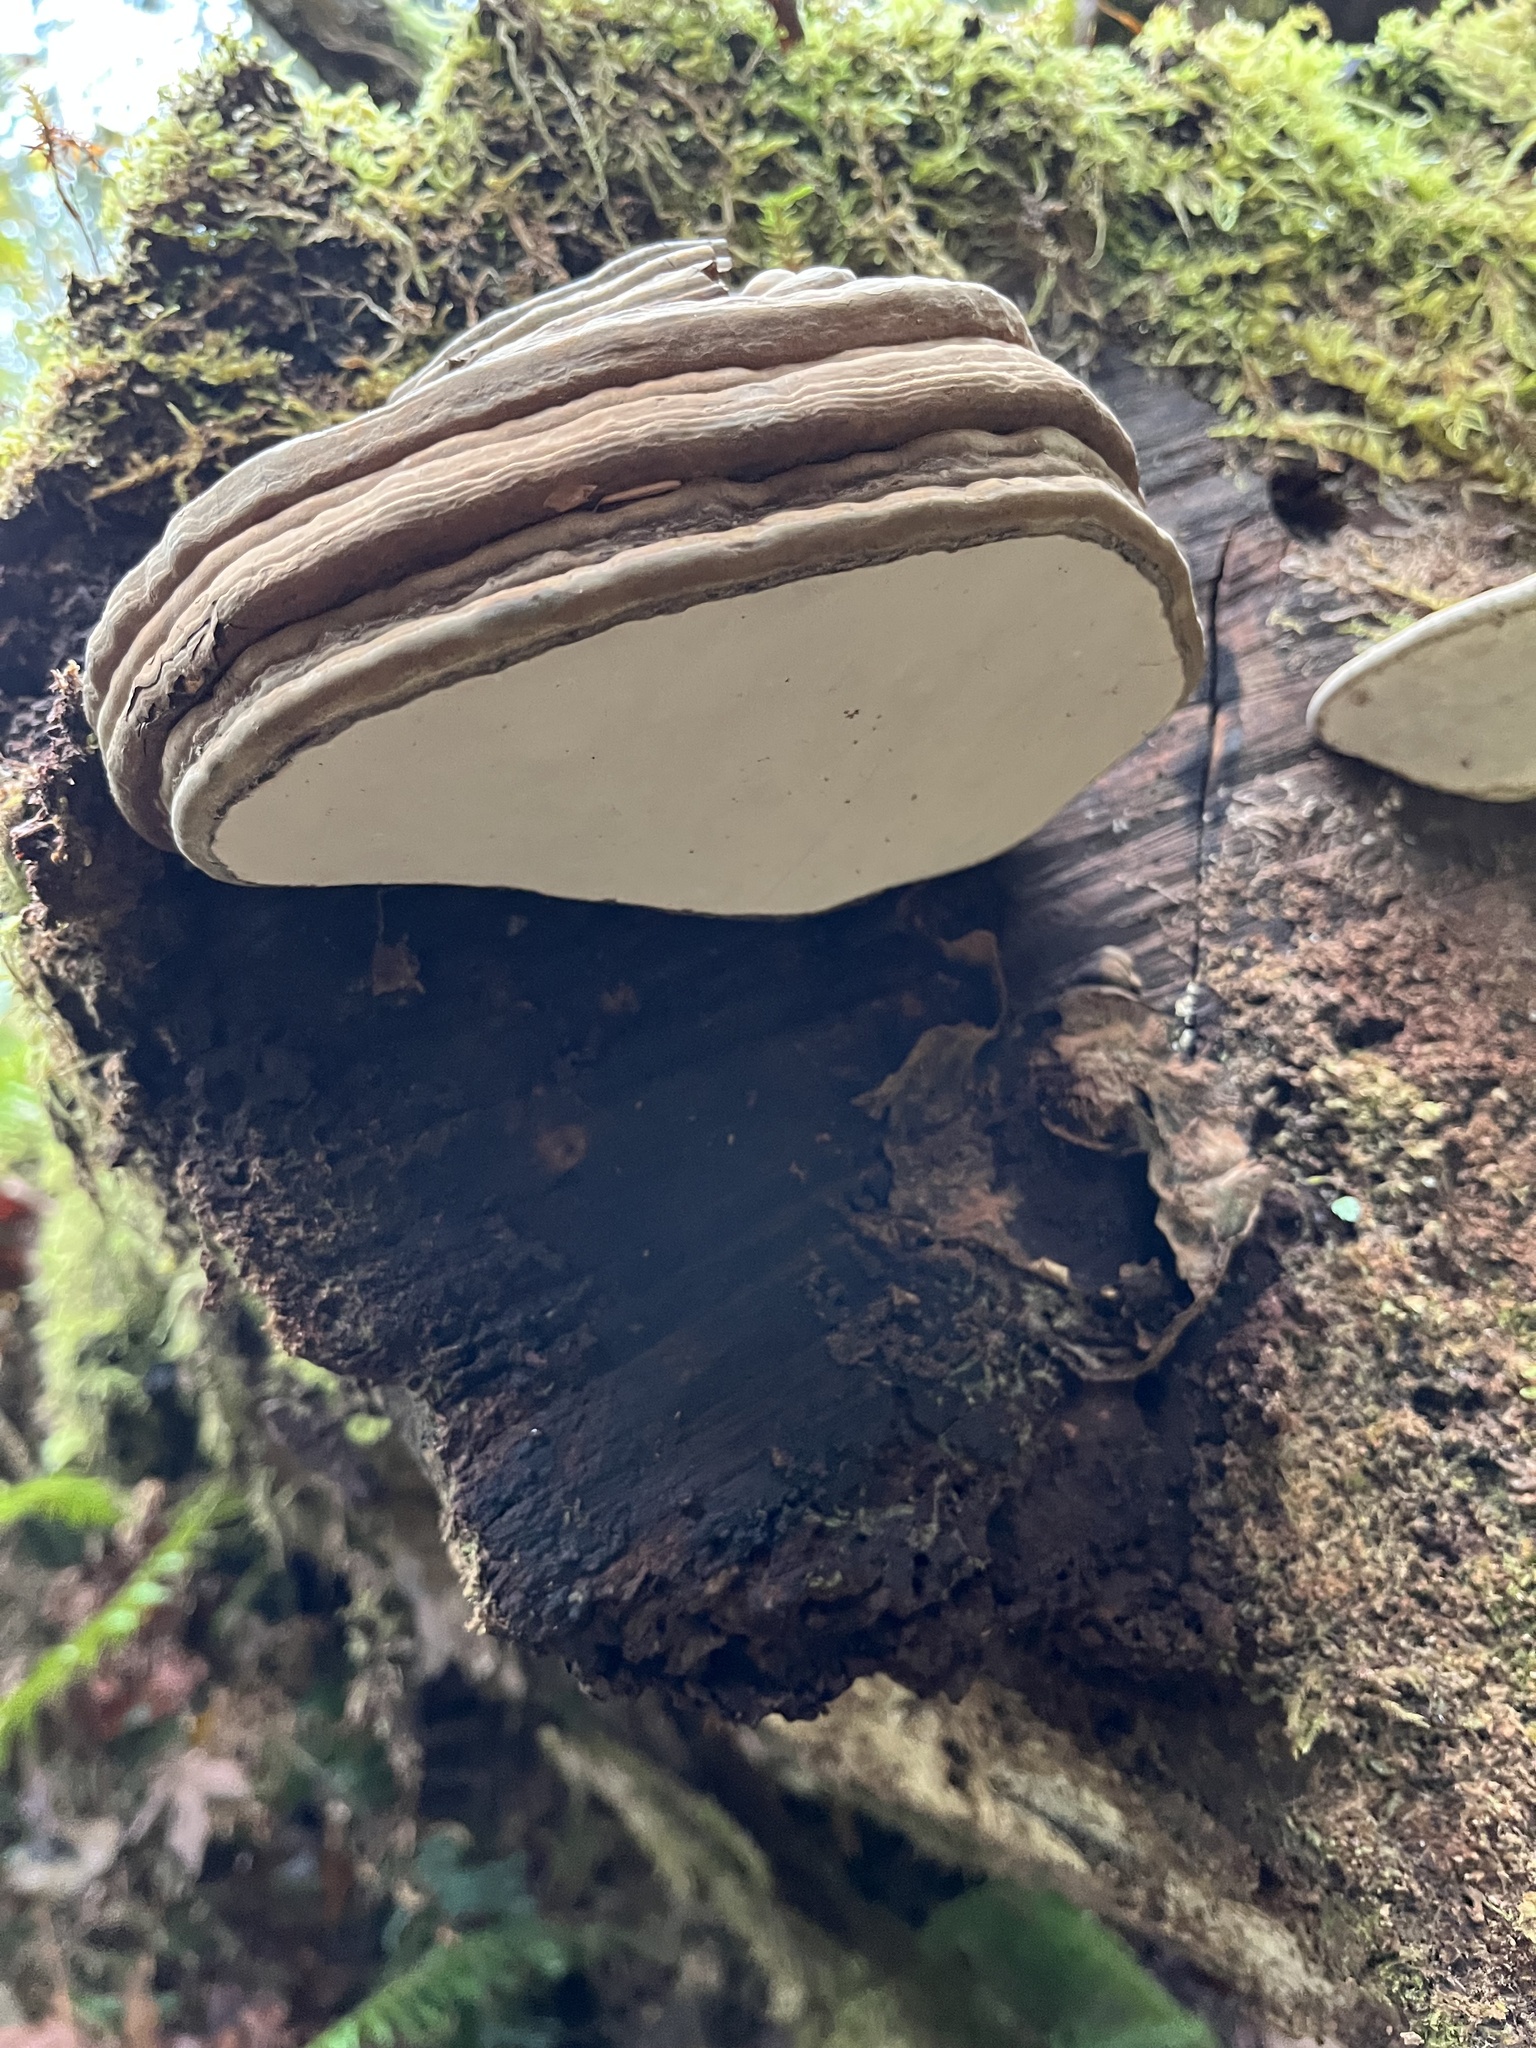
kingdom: Fungi
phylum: Basidiomycota
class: Agaricomycetes
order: Polyporales
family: Polyporaceae
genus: Ganoderma
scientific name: Ganoderma applanatum
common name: Artist's bracket
